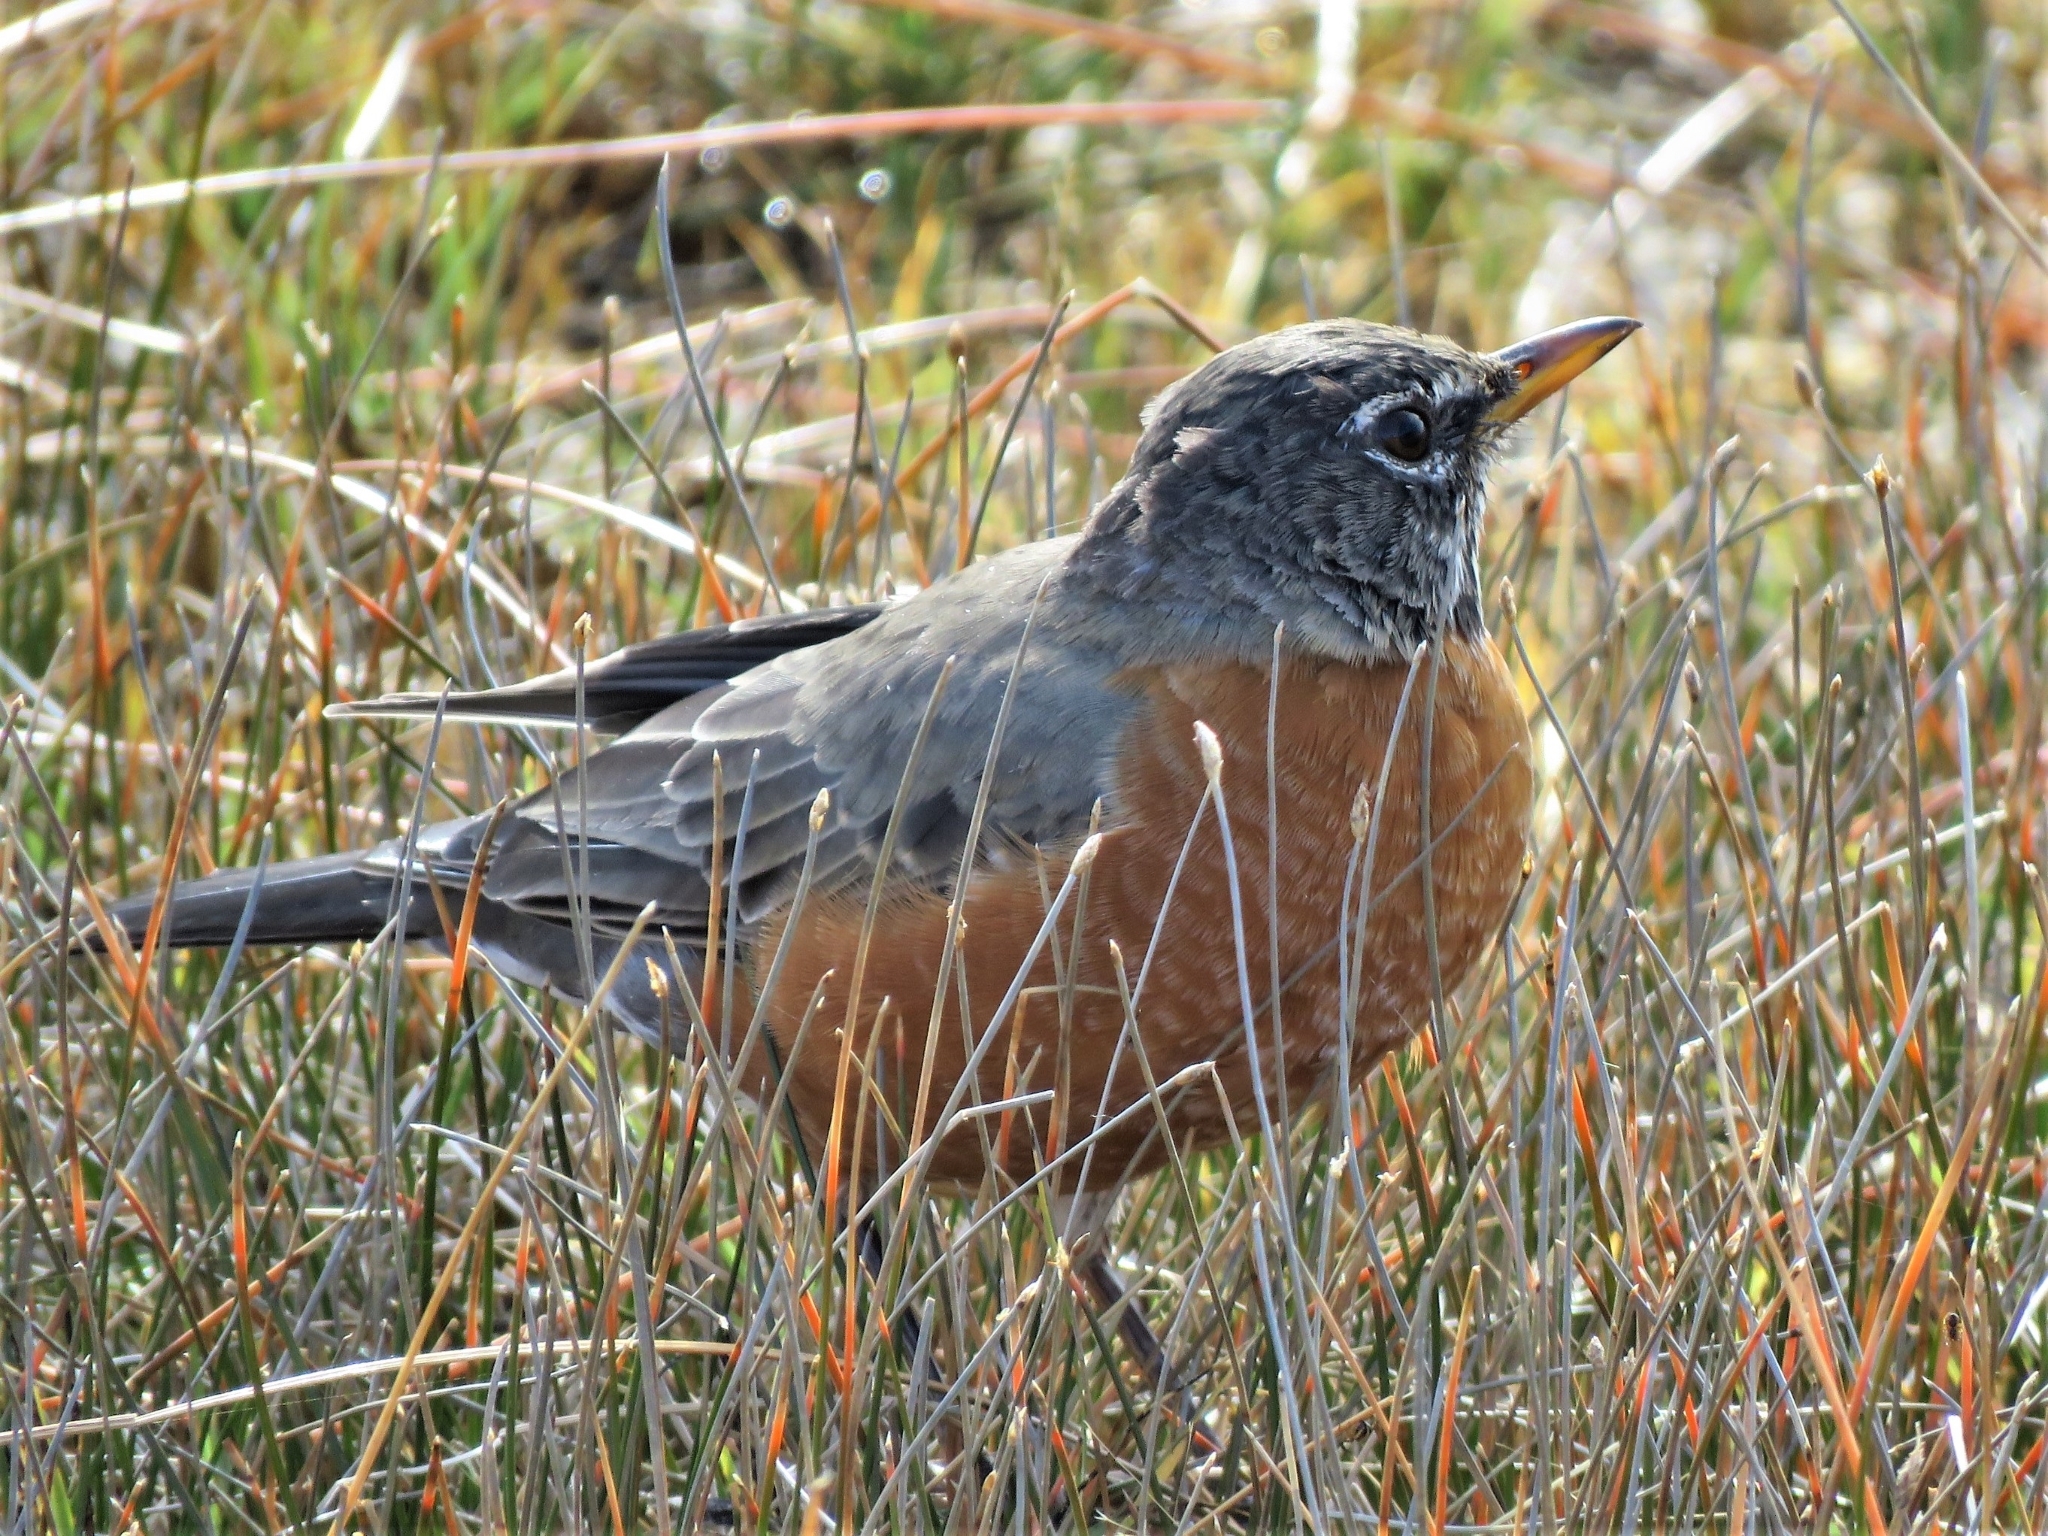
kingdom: Animalia
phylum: Chordata
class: Aves
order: Passeriformes
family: Turdidae
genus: Turdus
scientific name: Turdus migratorius
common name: American robin
